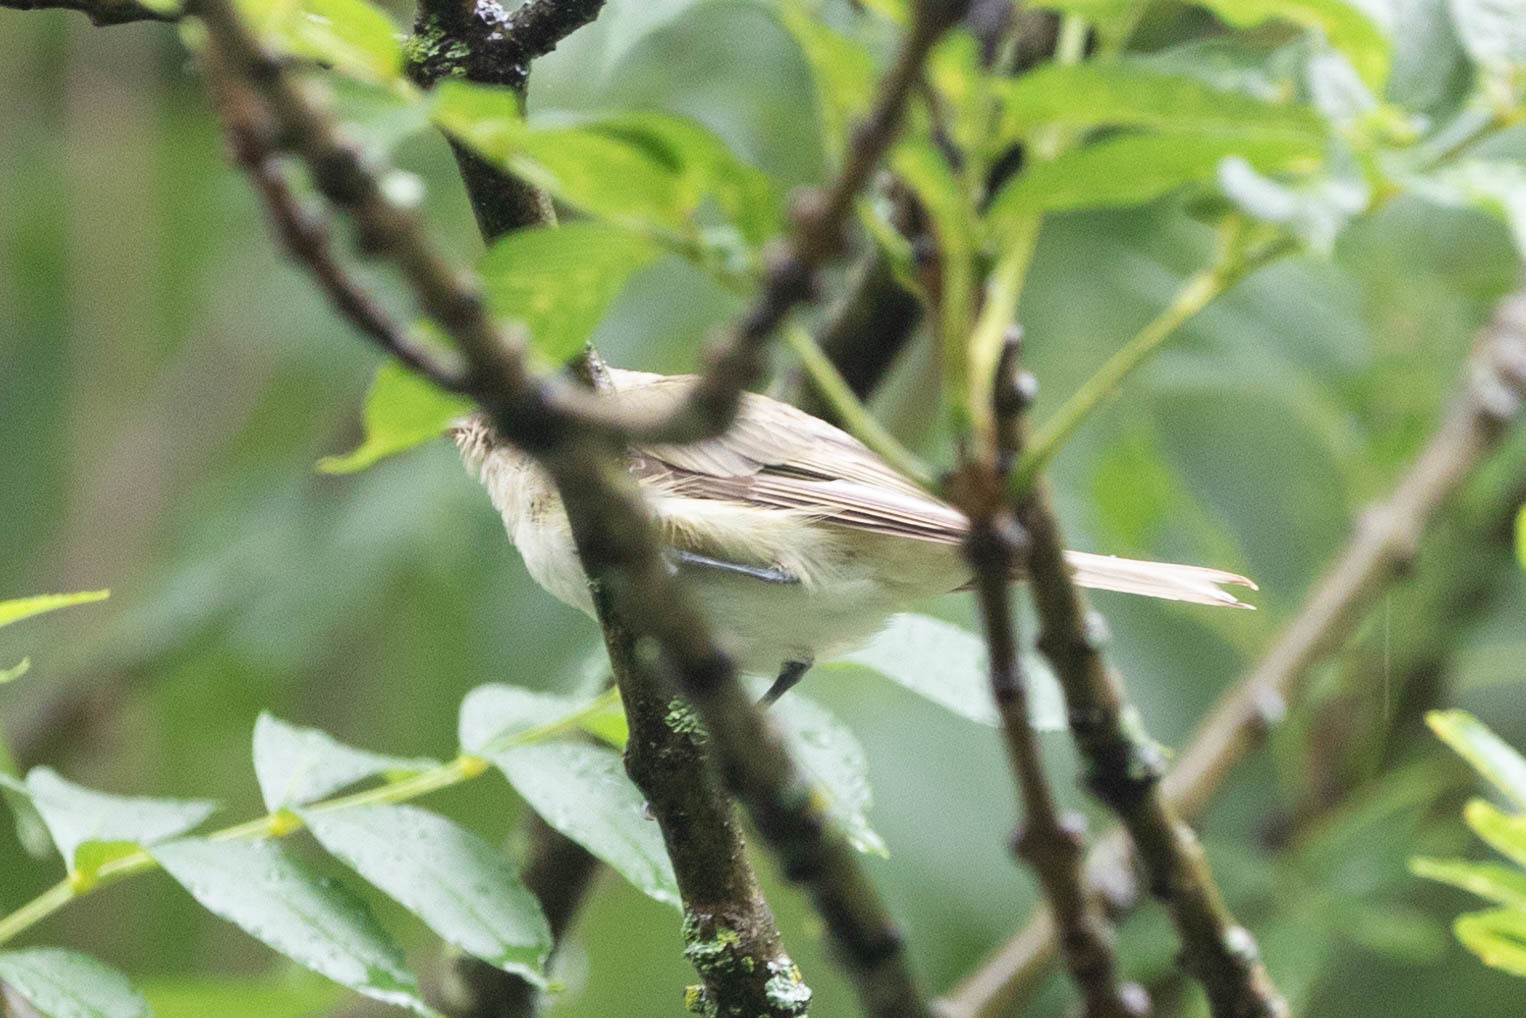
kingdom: Animalia
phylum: Chordata
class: Aves
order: Passeriformes
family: Vireonidae
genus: Vireo
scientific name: Vireo gilvus
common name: Warbling vireo
